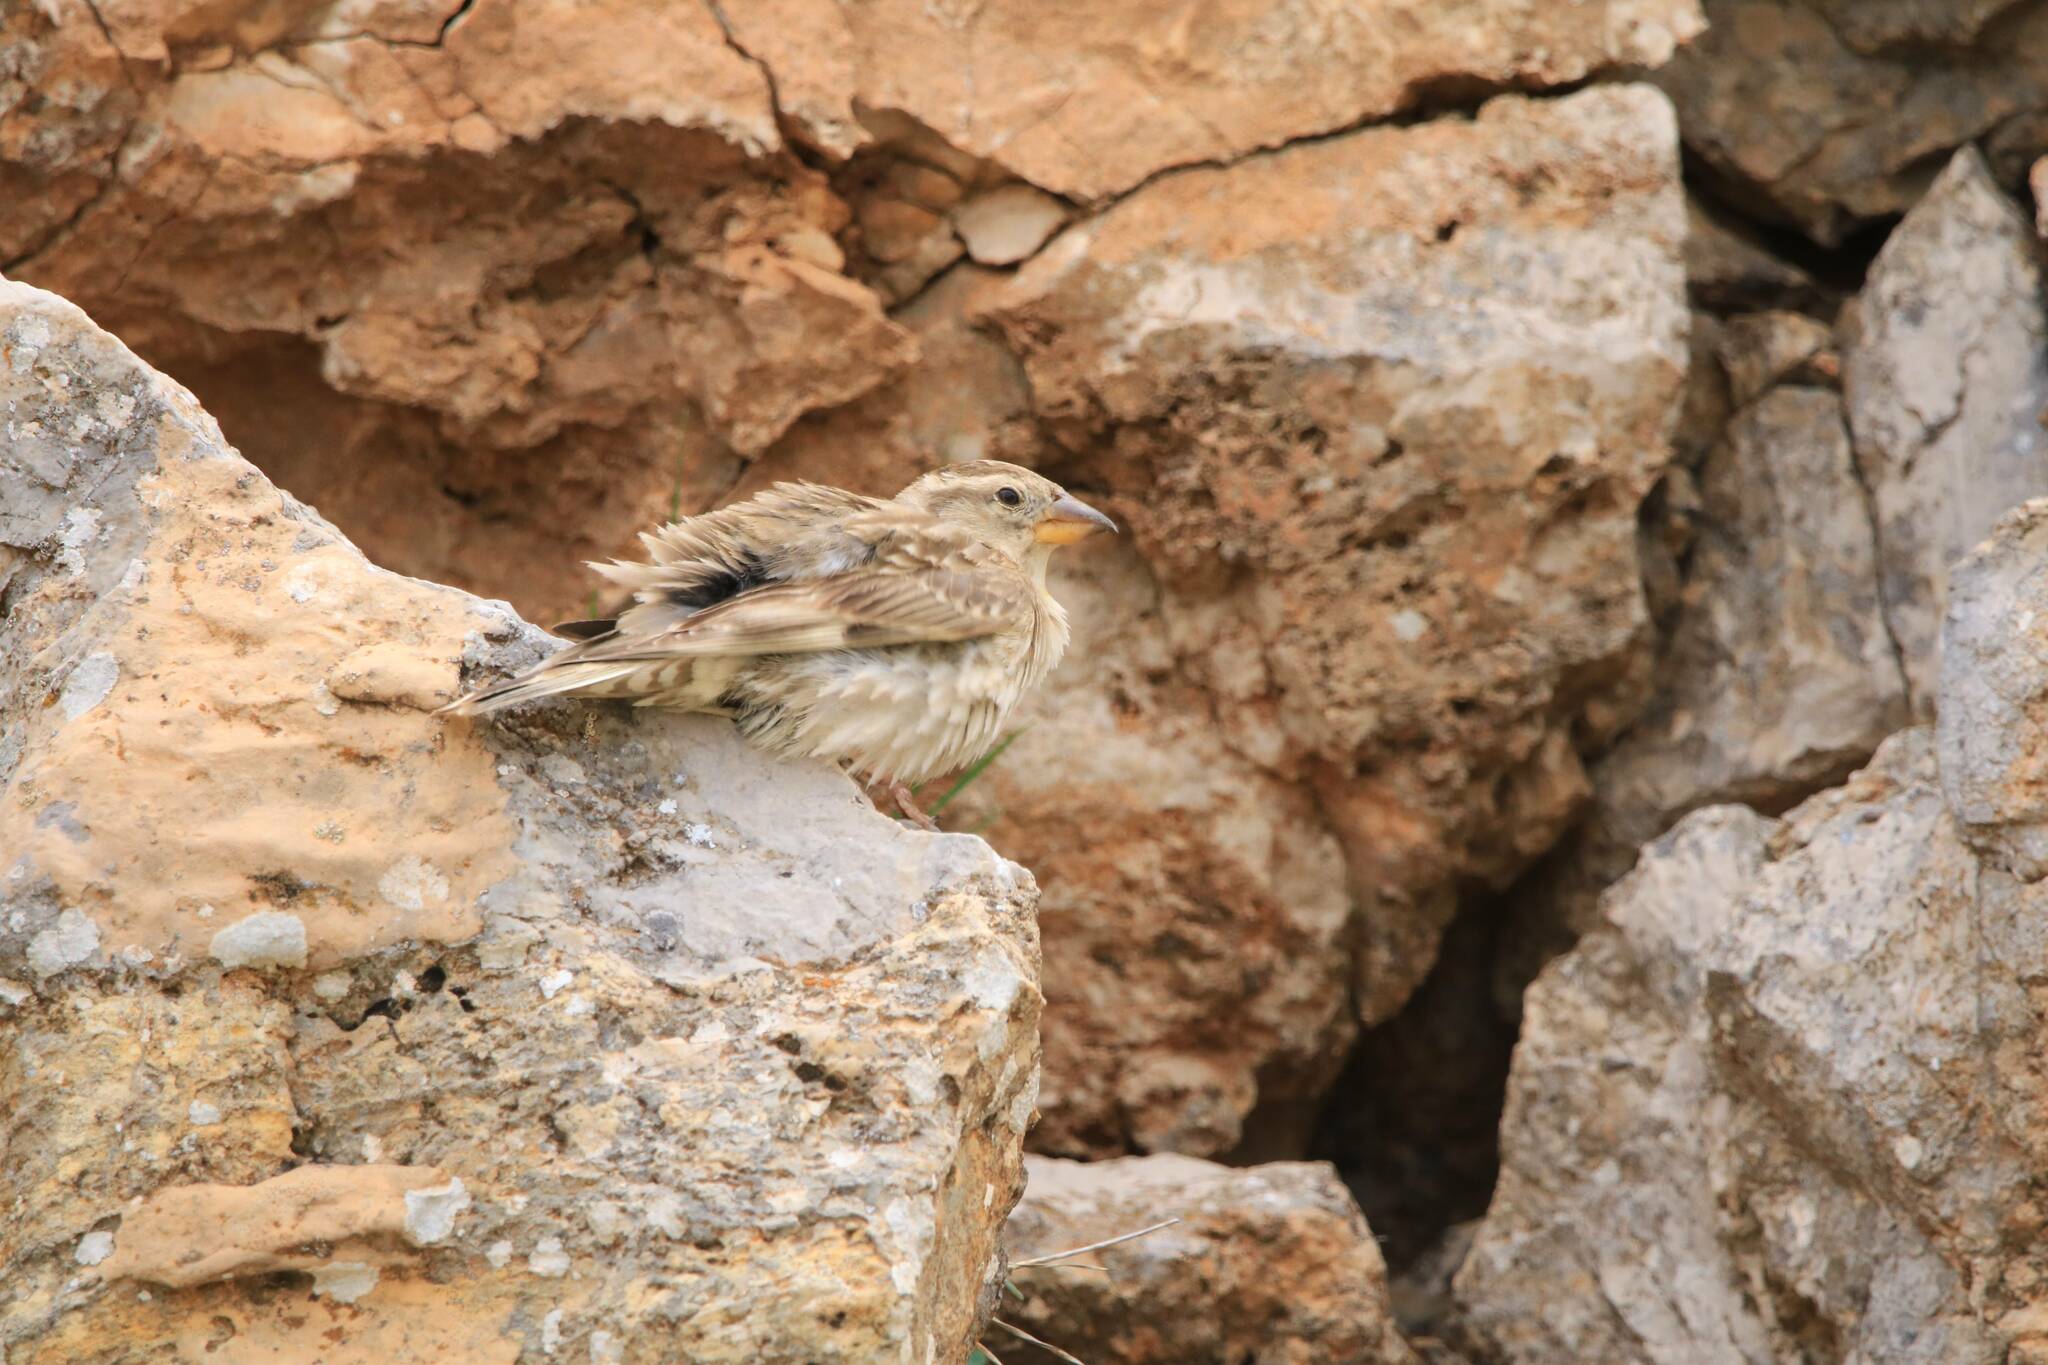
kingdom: Animalia
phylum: Chordata
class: Aves
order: Passeriformes
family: Passeridae
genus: Petronia
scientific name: Petronia petronia
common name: Rock sparrow
